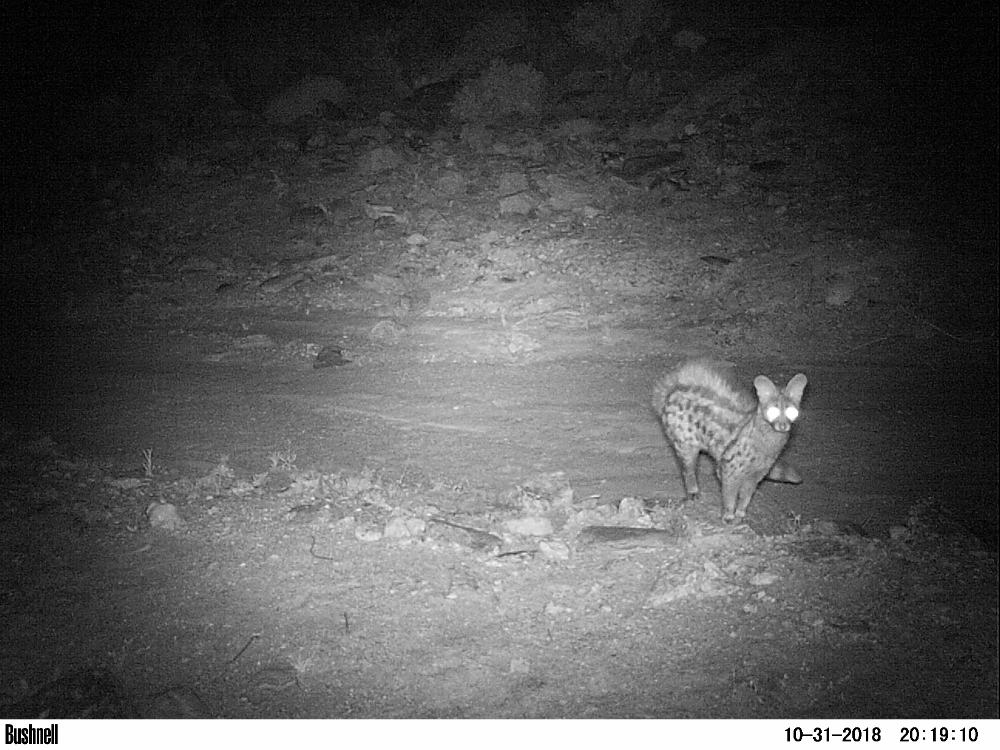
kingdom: Animalia
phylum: Chordata
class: Mammalia
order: Carnivora
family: Viverridae
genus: Genetta
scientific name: Genetta genetta
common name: Common genet
